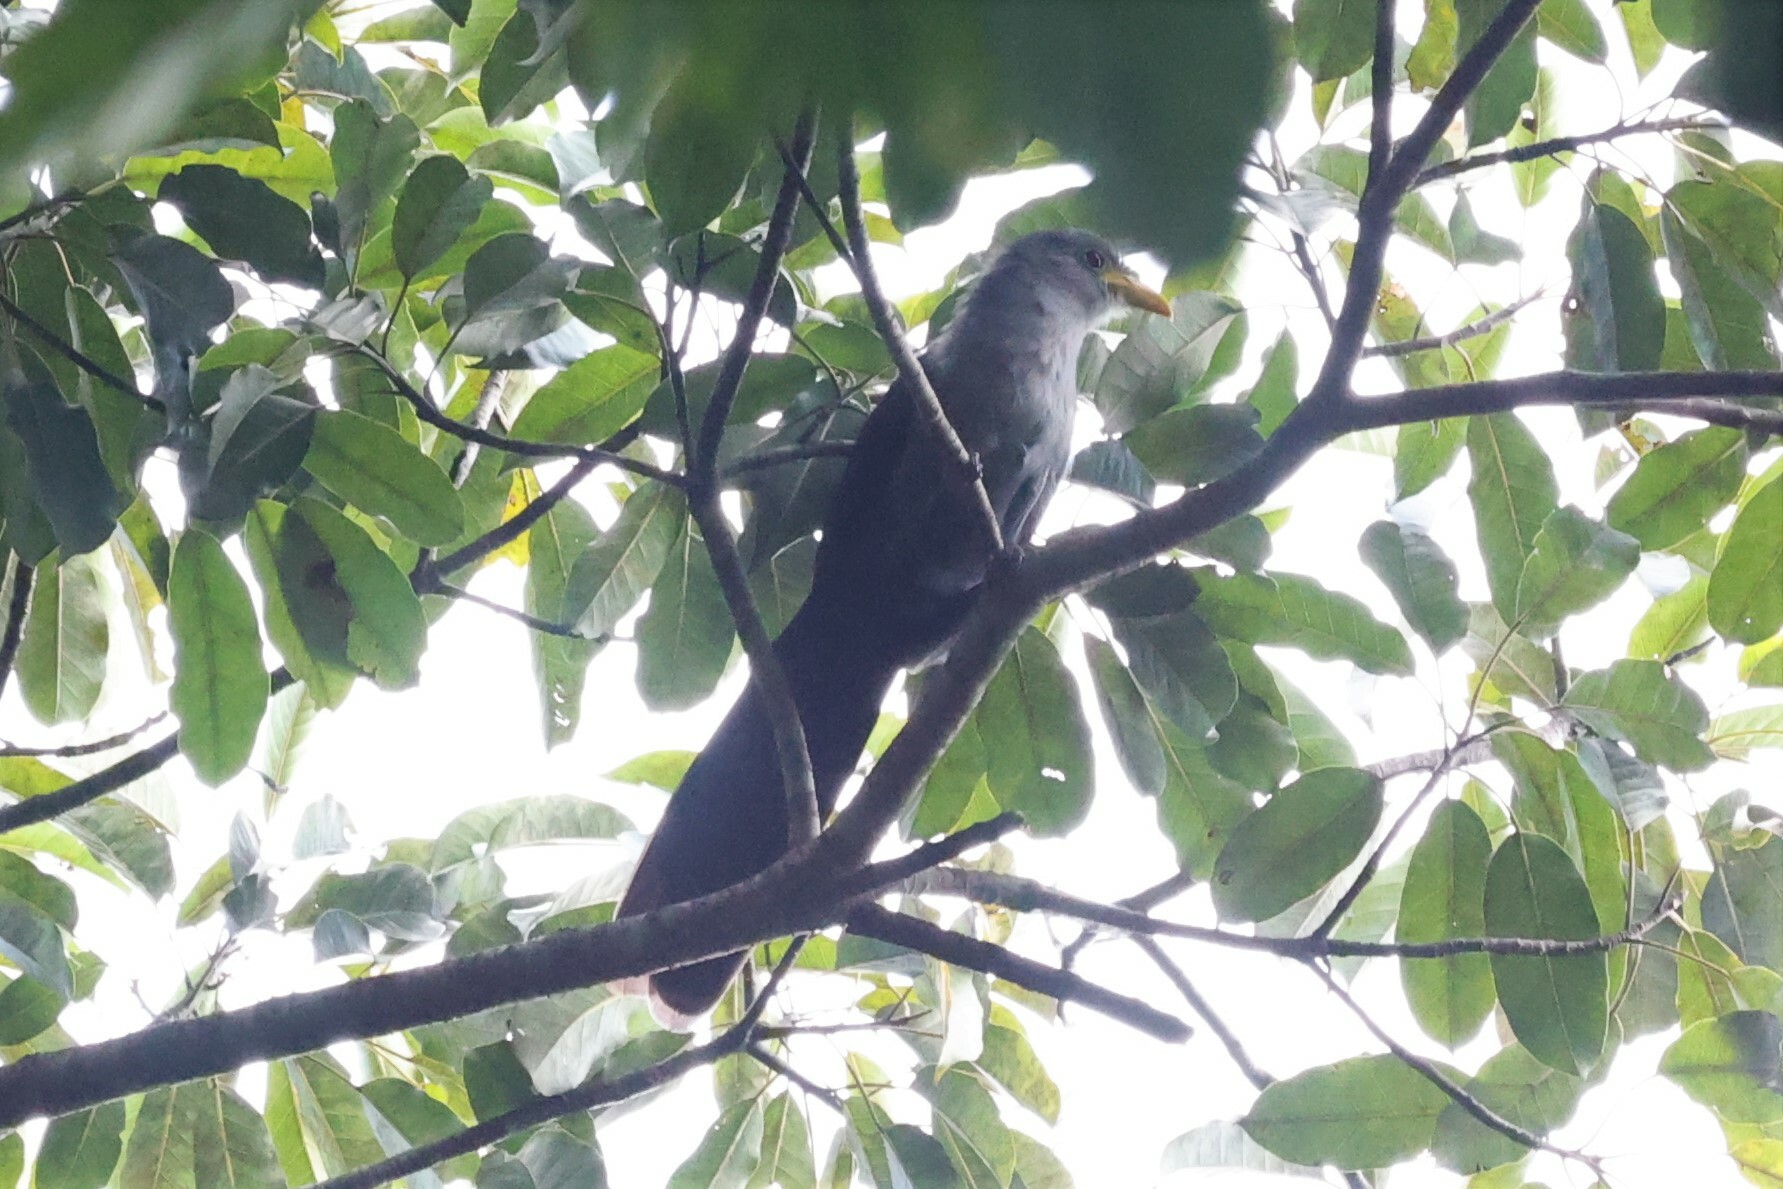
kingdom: Animalia
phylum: Chordata
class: Aves
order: Cuculiformes
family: Cuculidae
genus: Ceuthmochares
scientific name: Ceuthmochares aereus
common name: Blue malkoha
